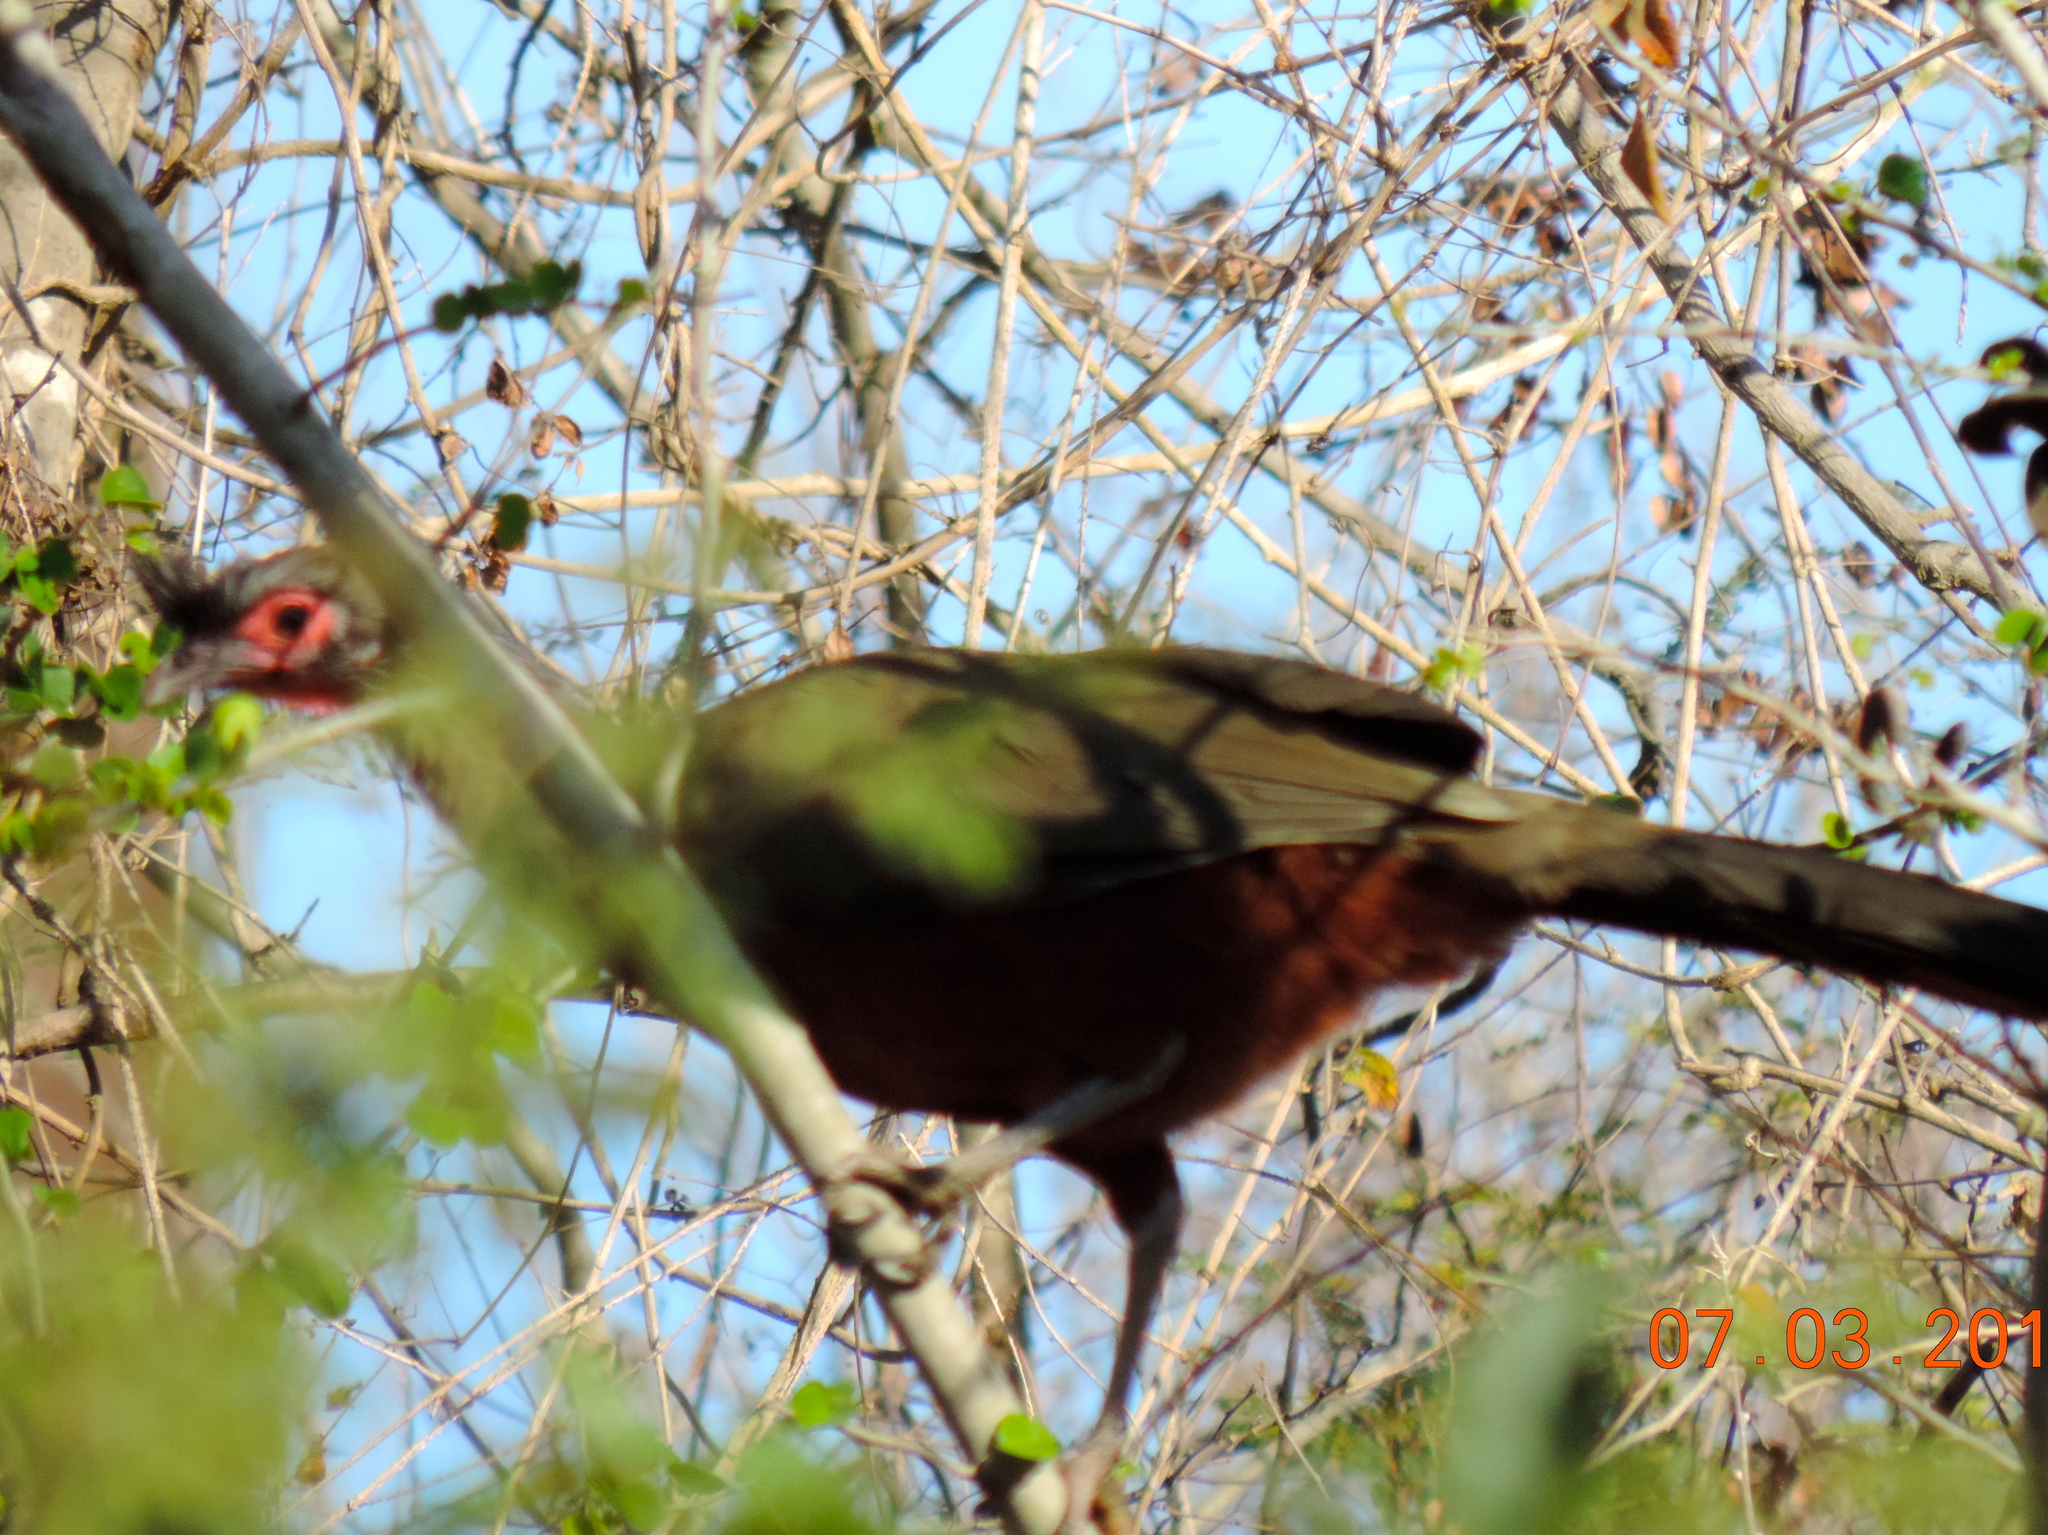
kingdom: Animalia
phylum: Chordata
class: Aves
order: Galliformes
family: Cracidae
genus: Ortalis
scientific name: Ortalis wagleri
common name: Rufous-bellied chachalaca
